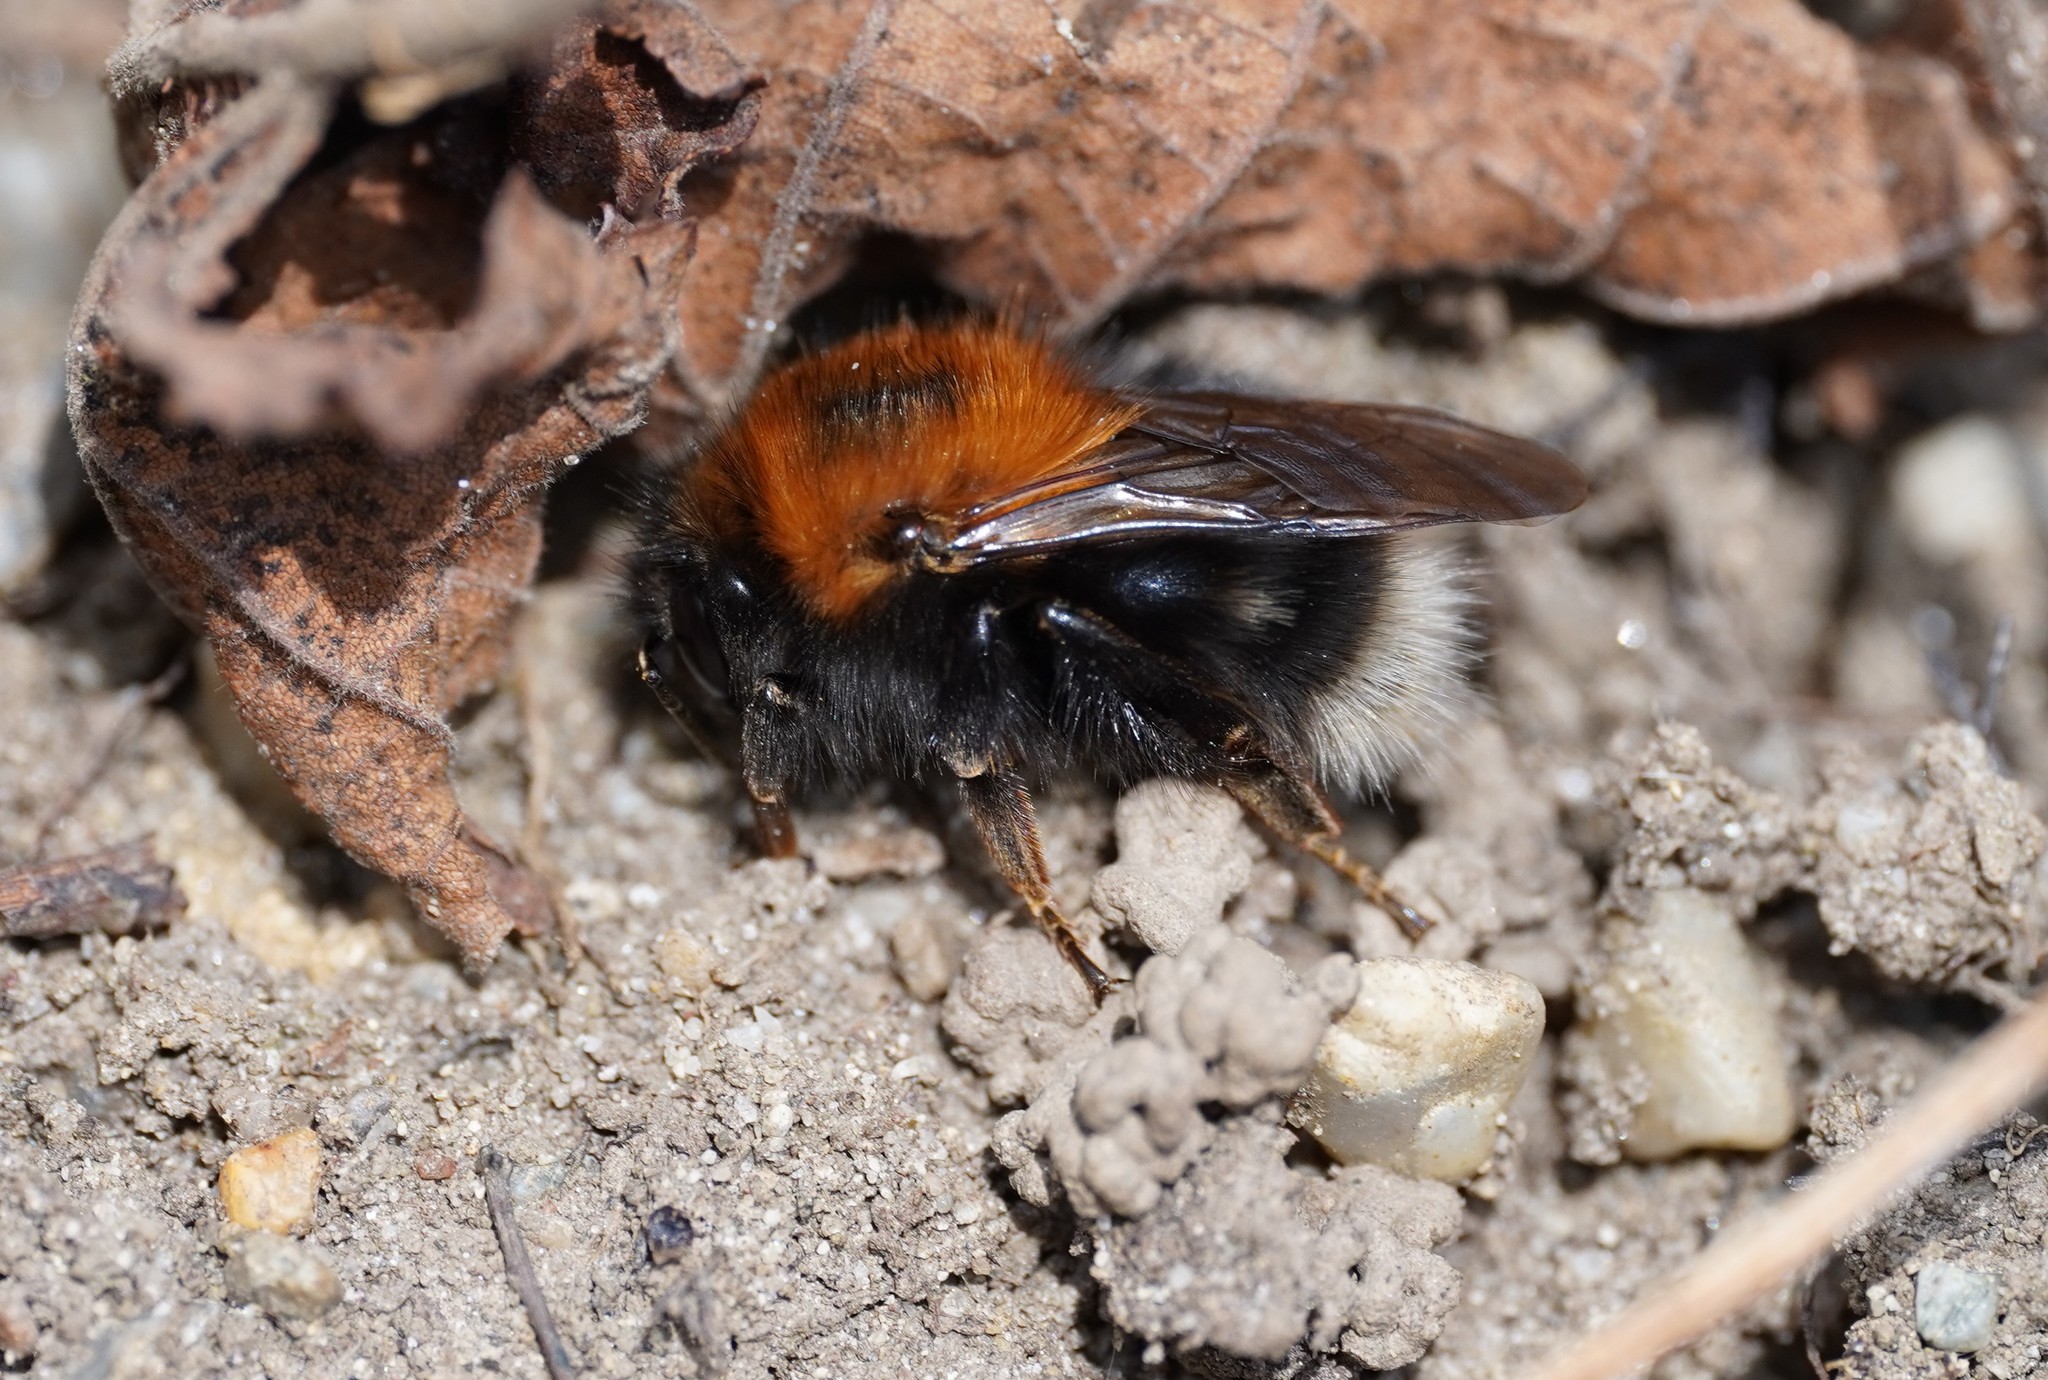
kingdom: Animalia
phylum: Arthropoda
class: Insecta
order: Hymenoptera
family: Apidae
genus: Bombus
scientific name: Bombus hypnorum
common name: New garden bumblebee
